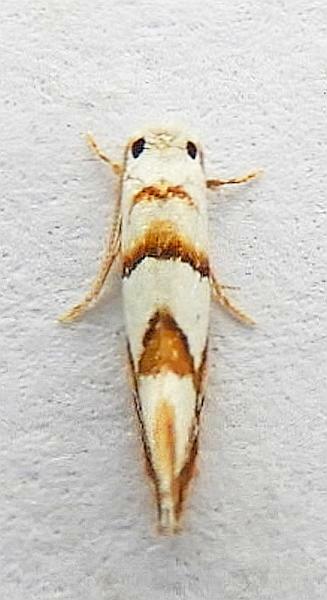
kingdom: Animalia
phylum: Arthropoda
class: Insecta
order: Lepidoptera
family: Meessiidae
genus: Pompostolella
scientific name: Pompostolella charipepla
